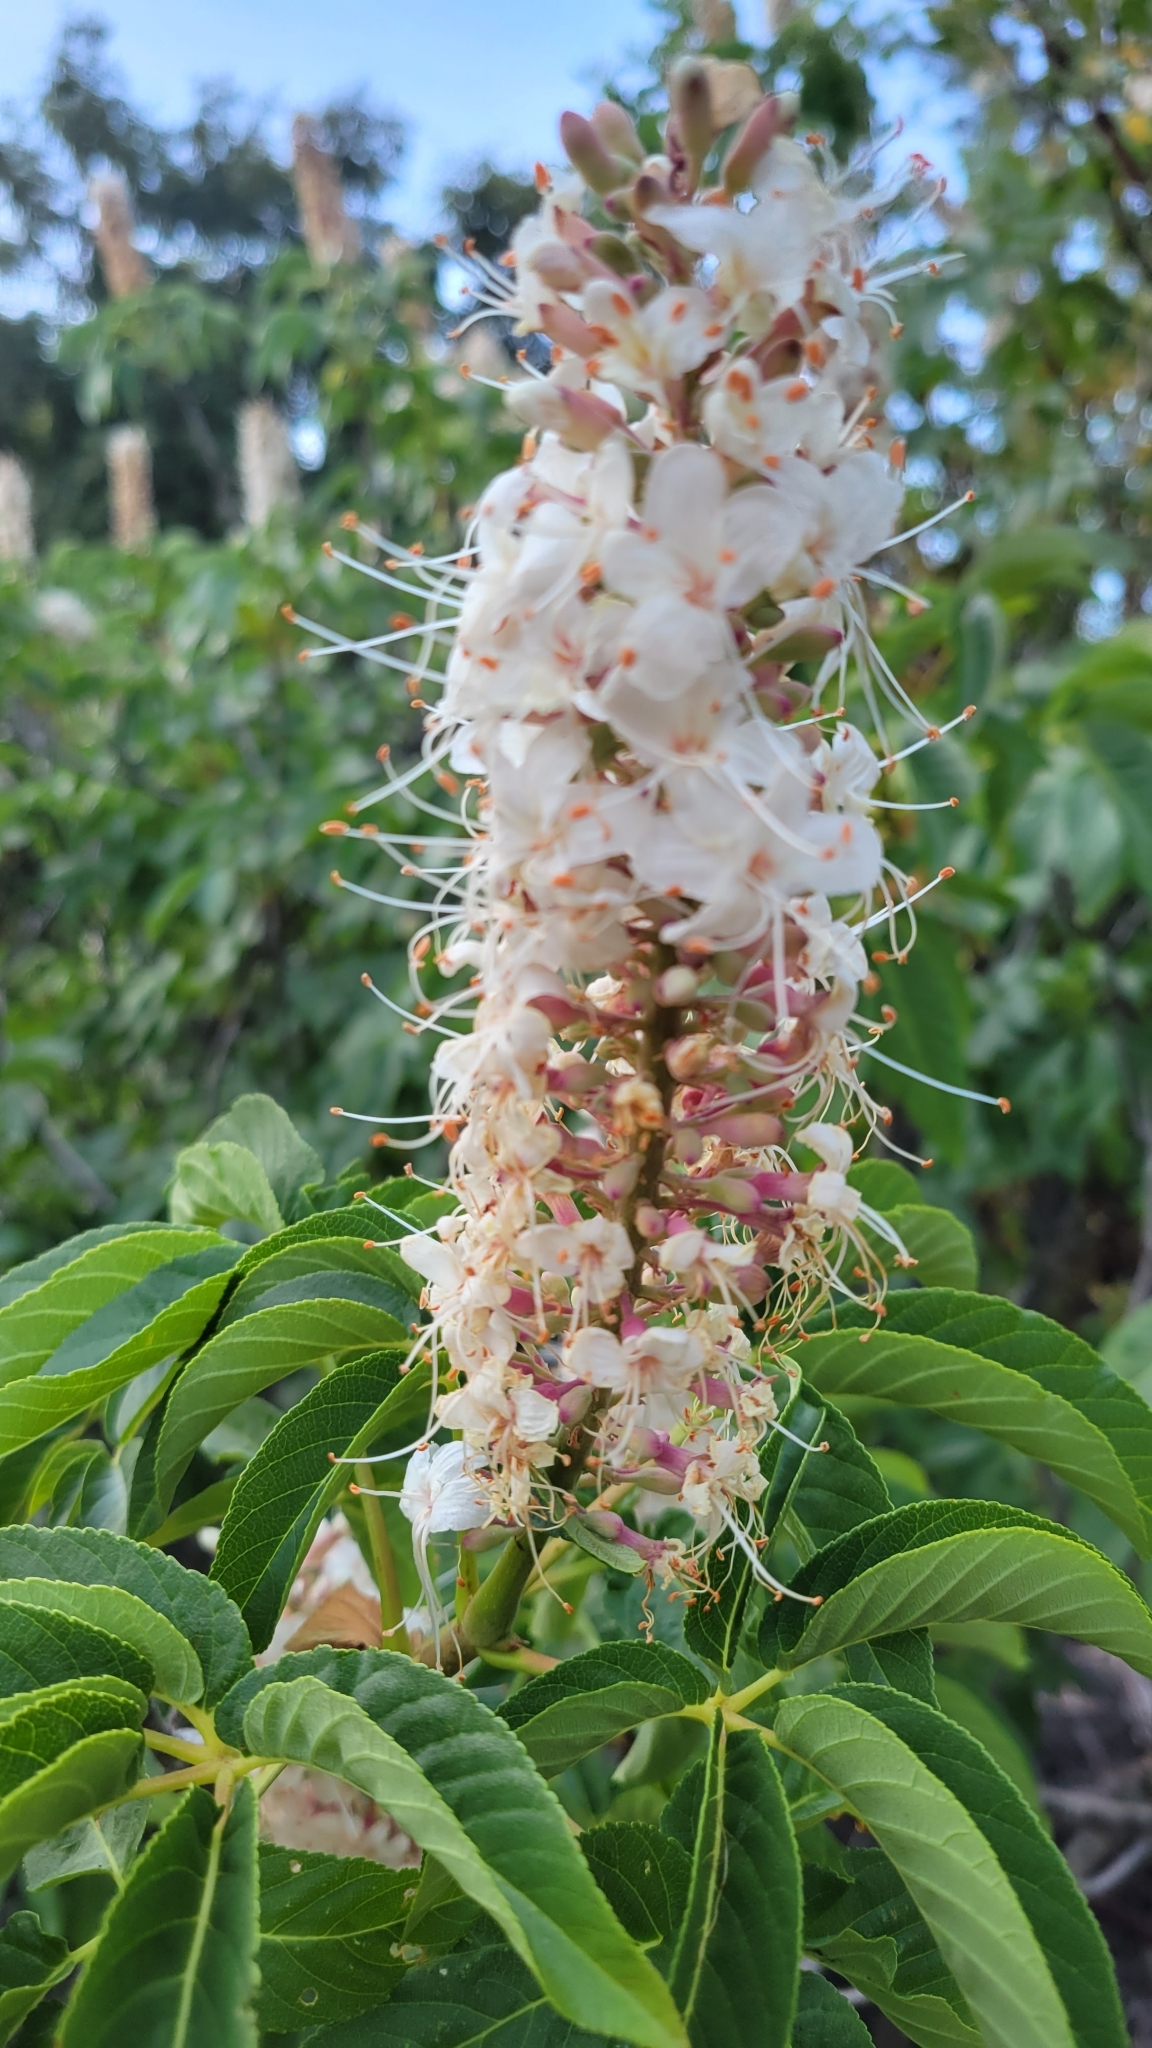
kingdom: Plantae
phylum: Tracheophyta
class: Magnoliopsida
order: Sapindales
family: Sapindaceae
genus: Aesculus
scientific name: Aesculus californica
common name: California buckeye
